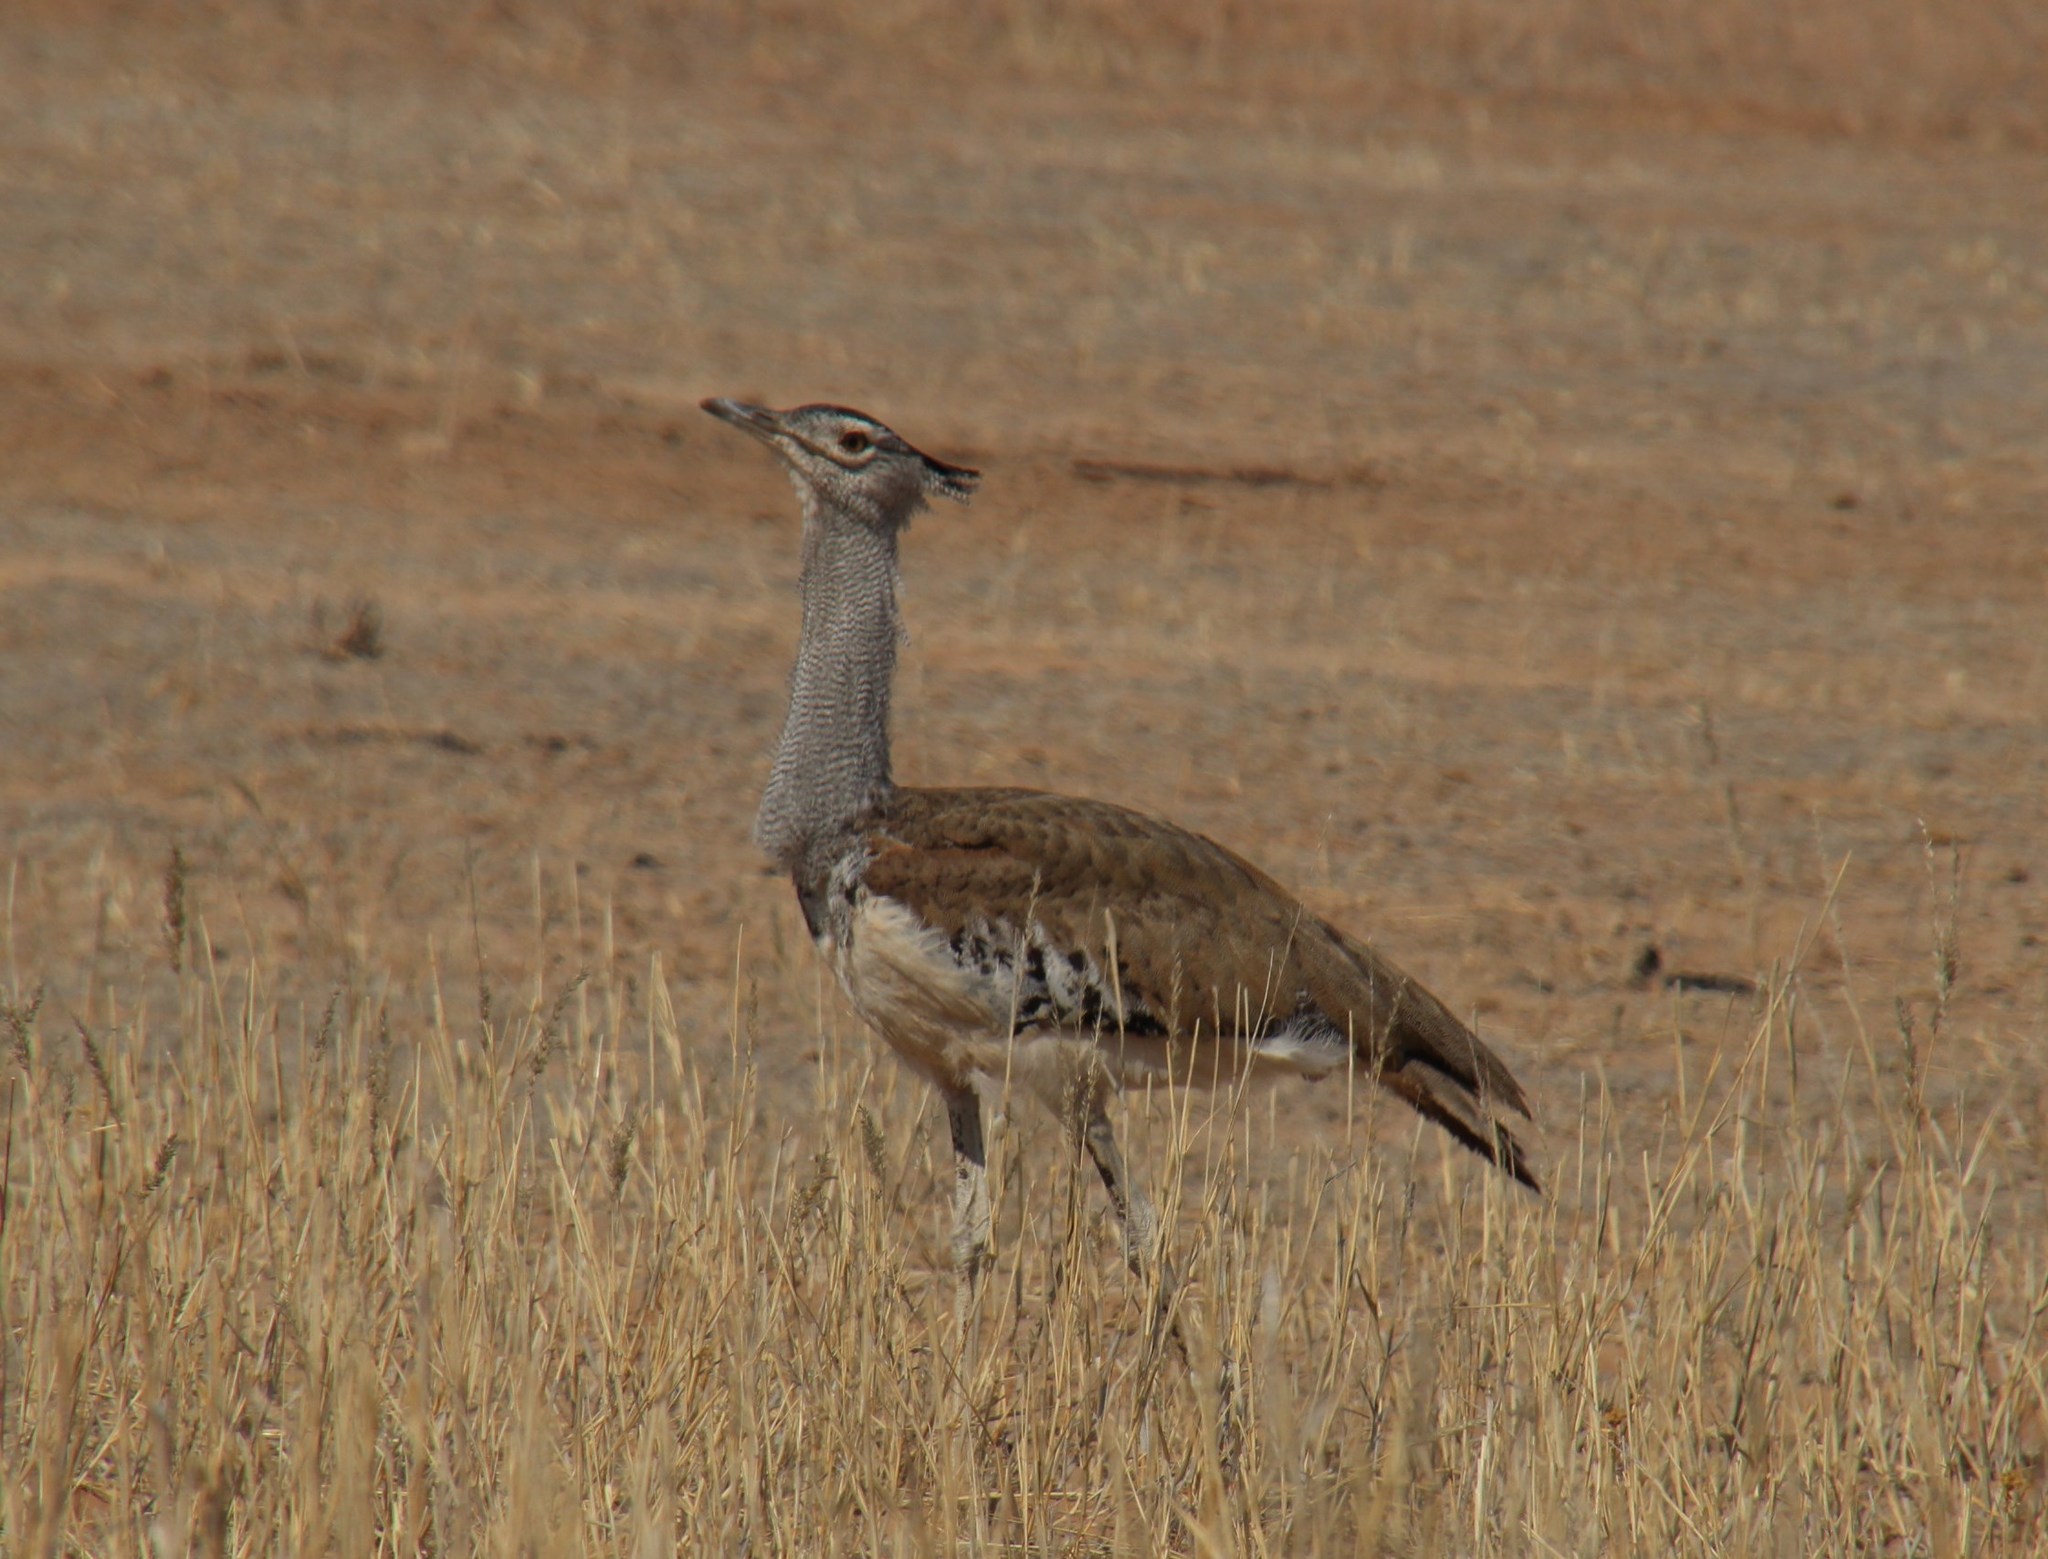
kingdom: Animalia
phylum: Chordata
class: Aves
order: Otidiformes
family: Otididae
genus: Ardeotis
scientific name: Ardeotis kori
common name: Kori bustard
